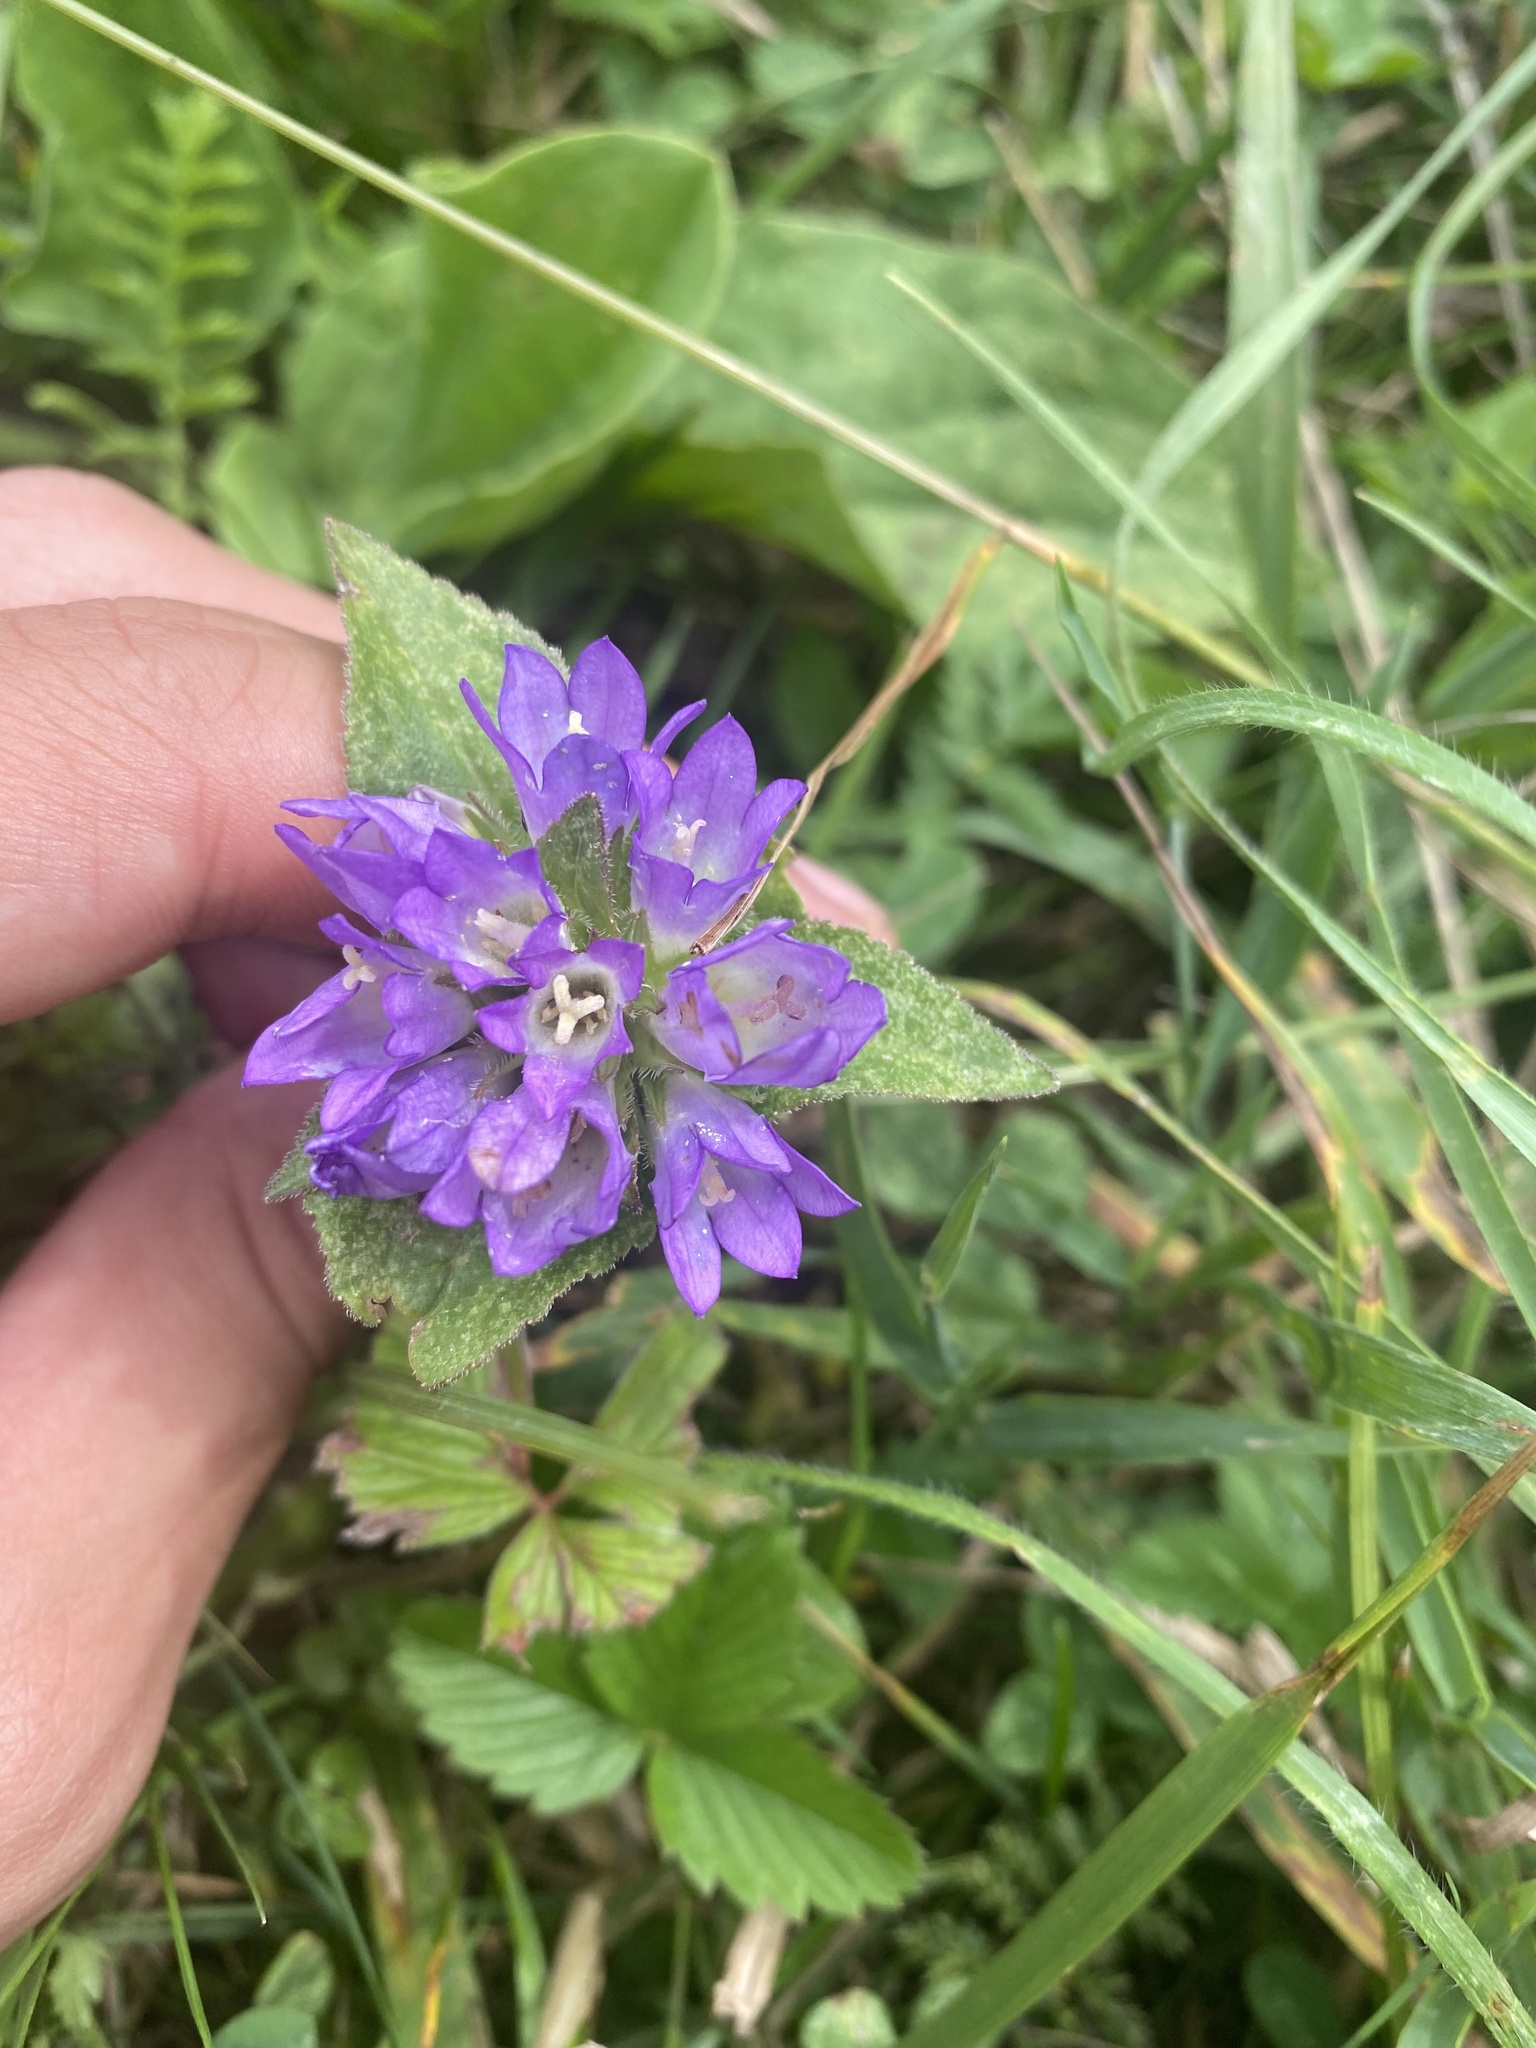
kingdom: Plantae
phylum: Tracheophyta
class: Magnoliopsida
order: Asterales
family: Campanulaceae
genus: Campanula
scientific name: Campanula glomerata
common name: Clustered bellflower
